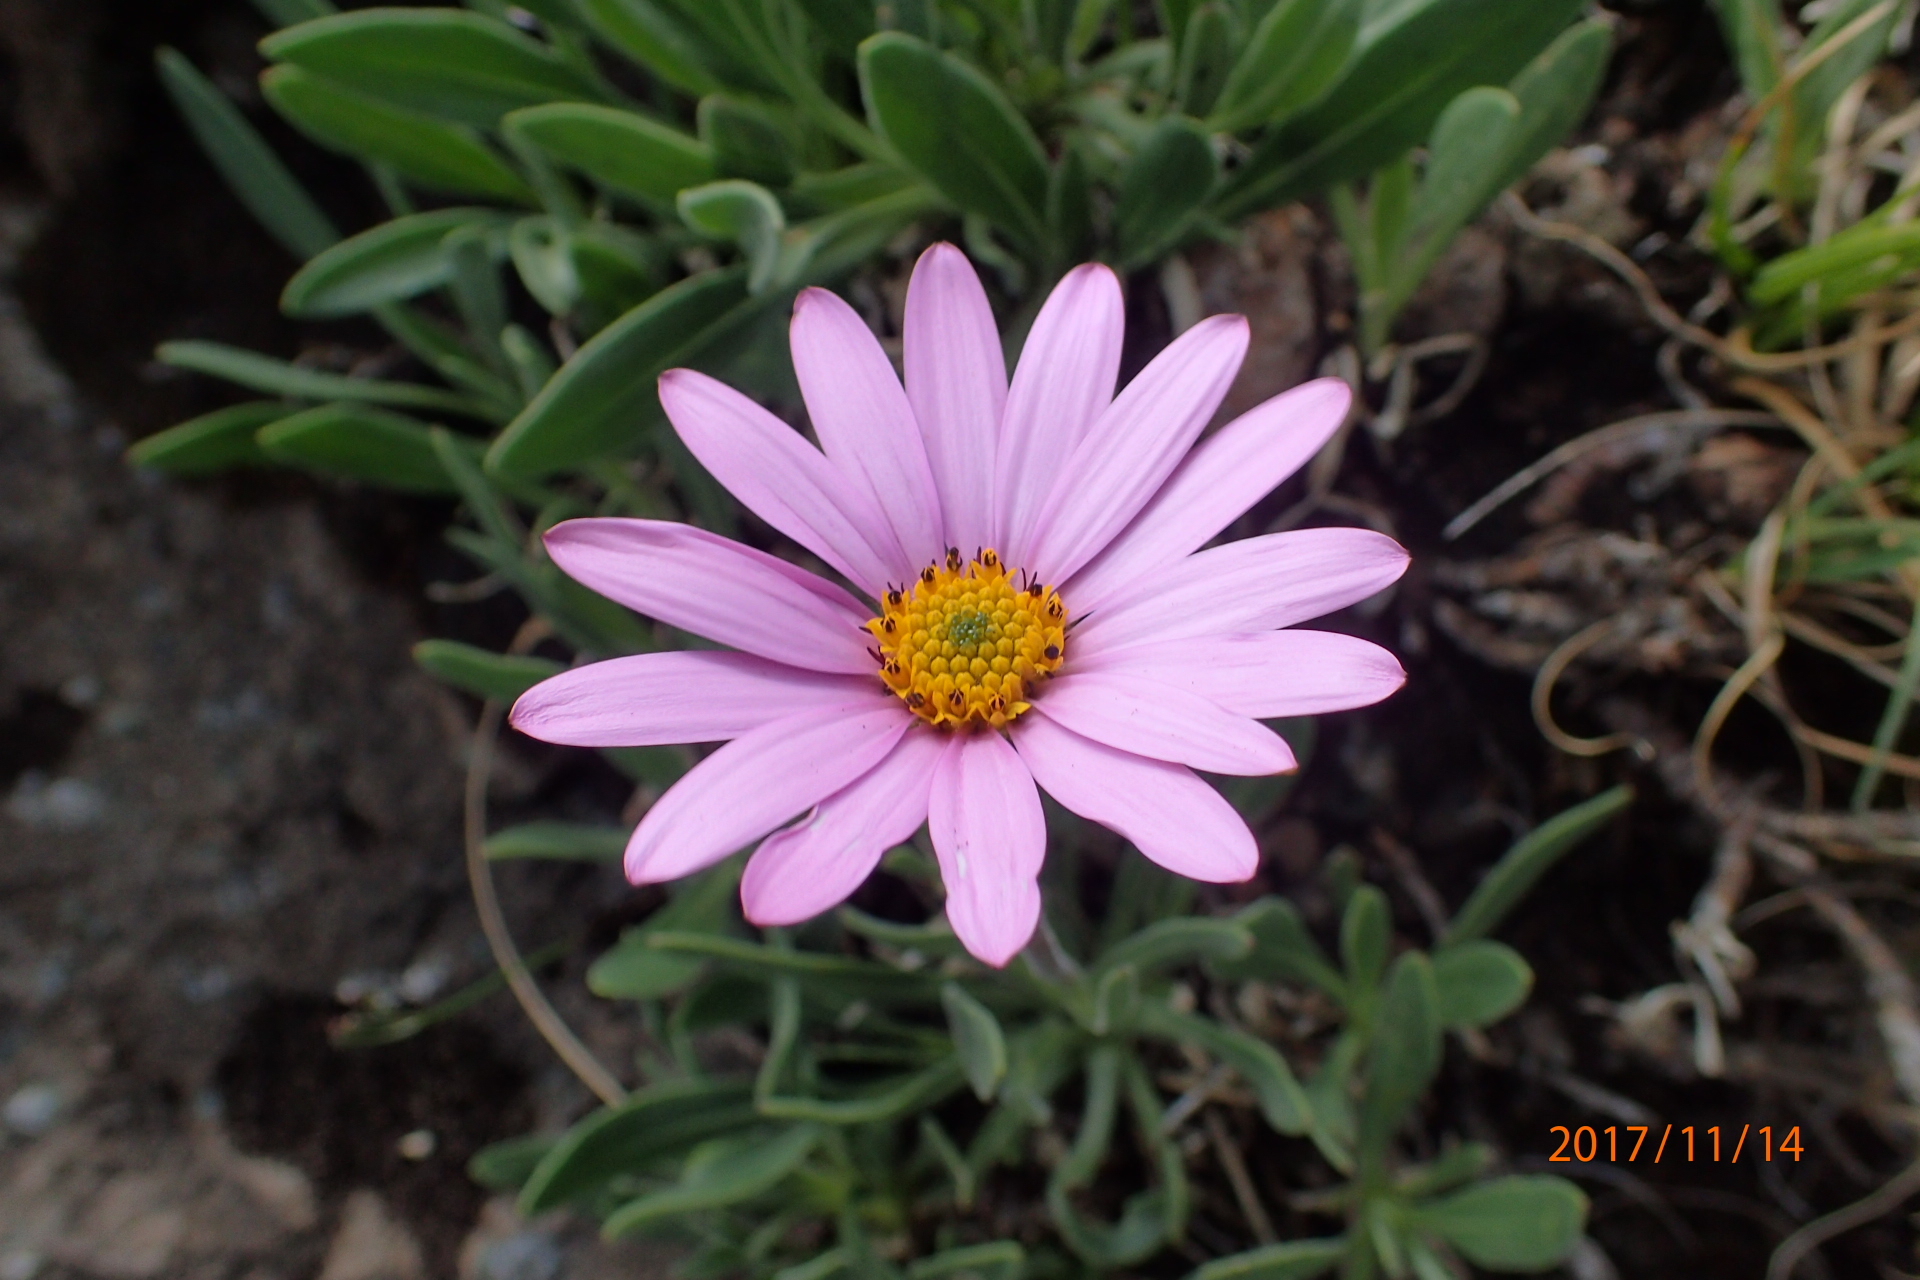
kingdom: Plantae
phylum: Tracheophyta
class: Magnoliopsida
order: Asterales
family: Asteraceae
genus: Dimorphotheca
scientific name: Dimorphotheca jucunda
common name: Osteospermum
